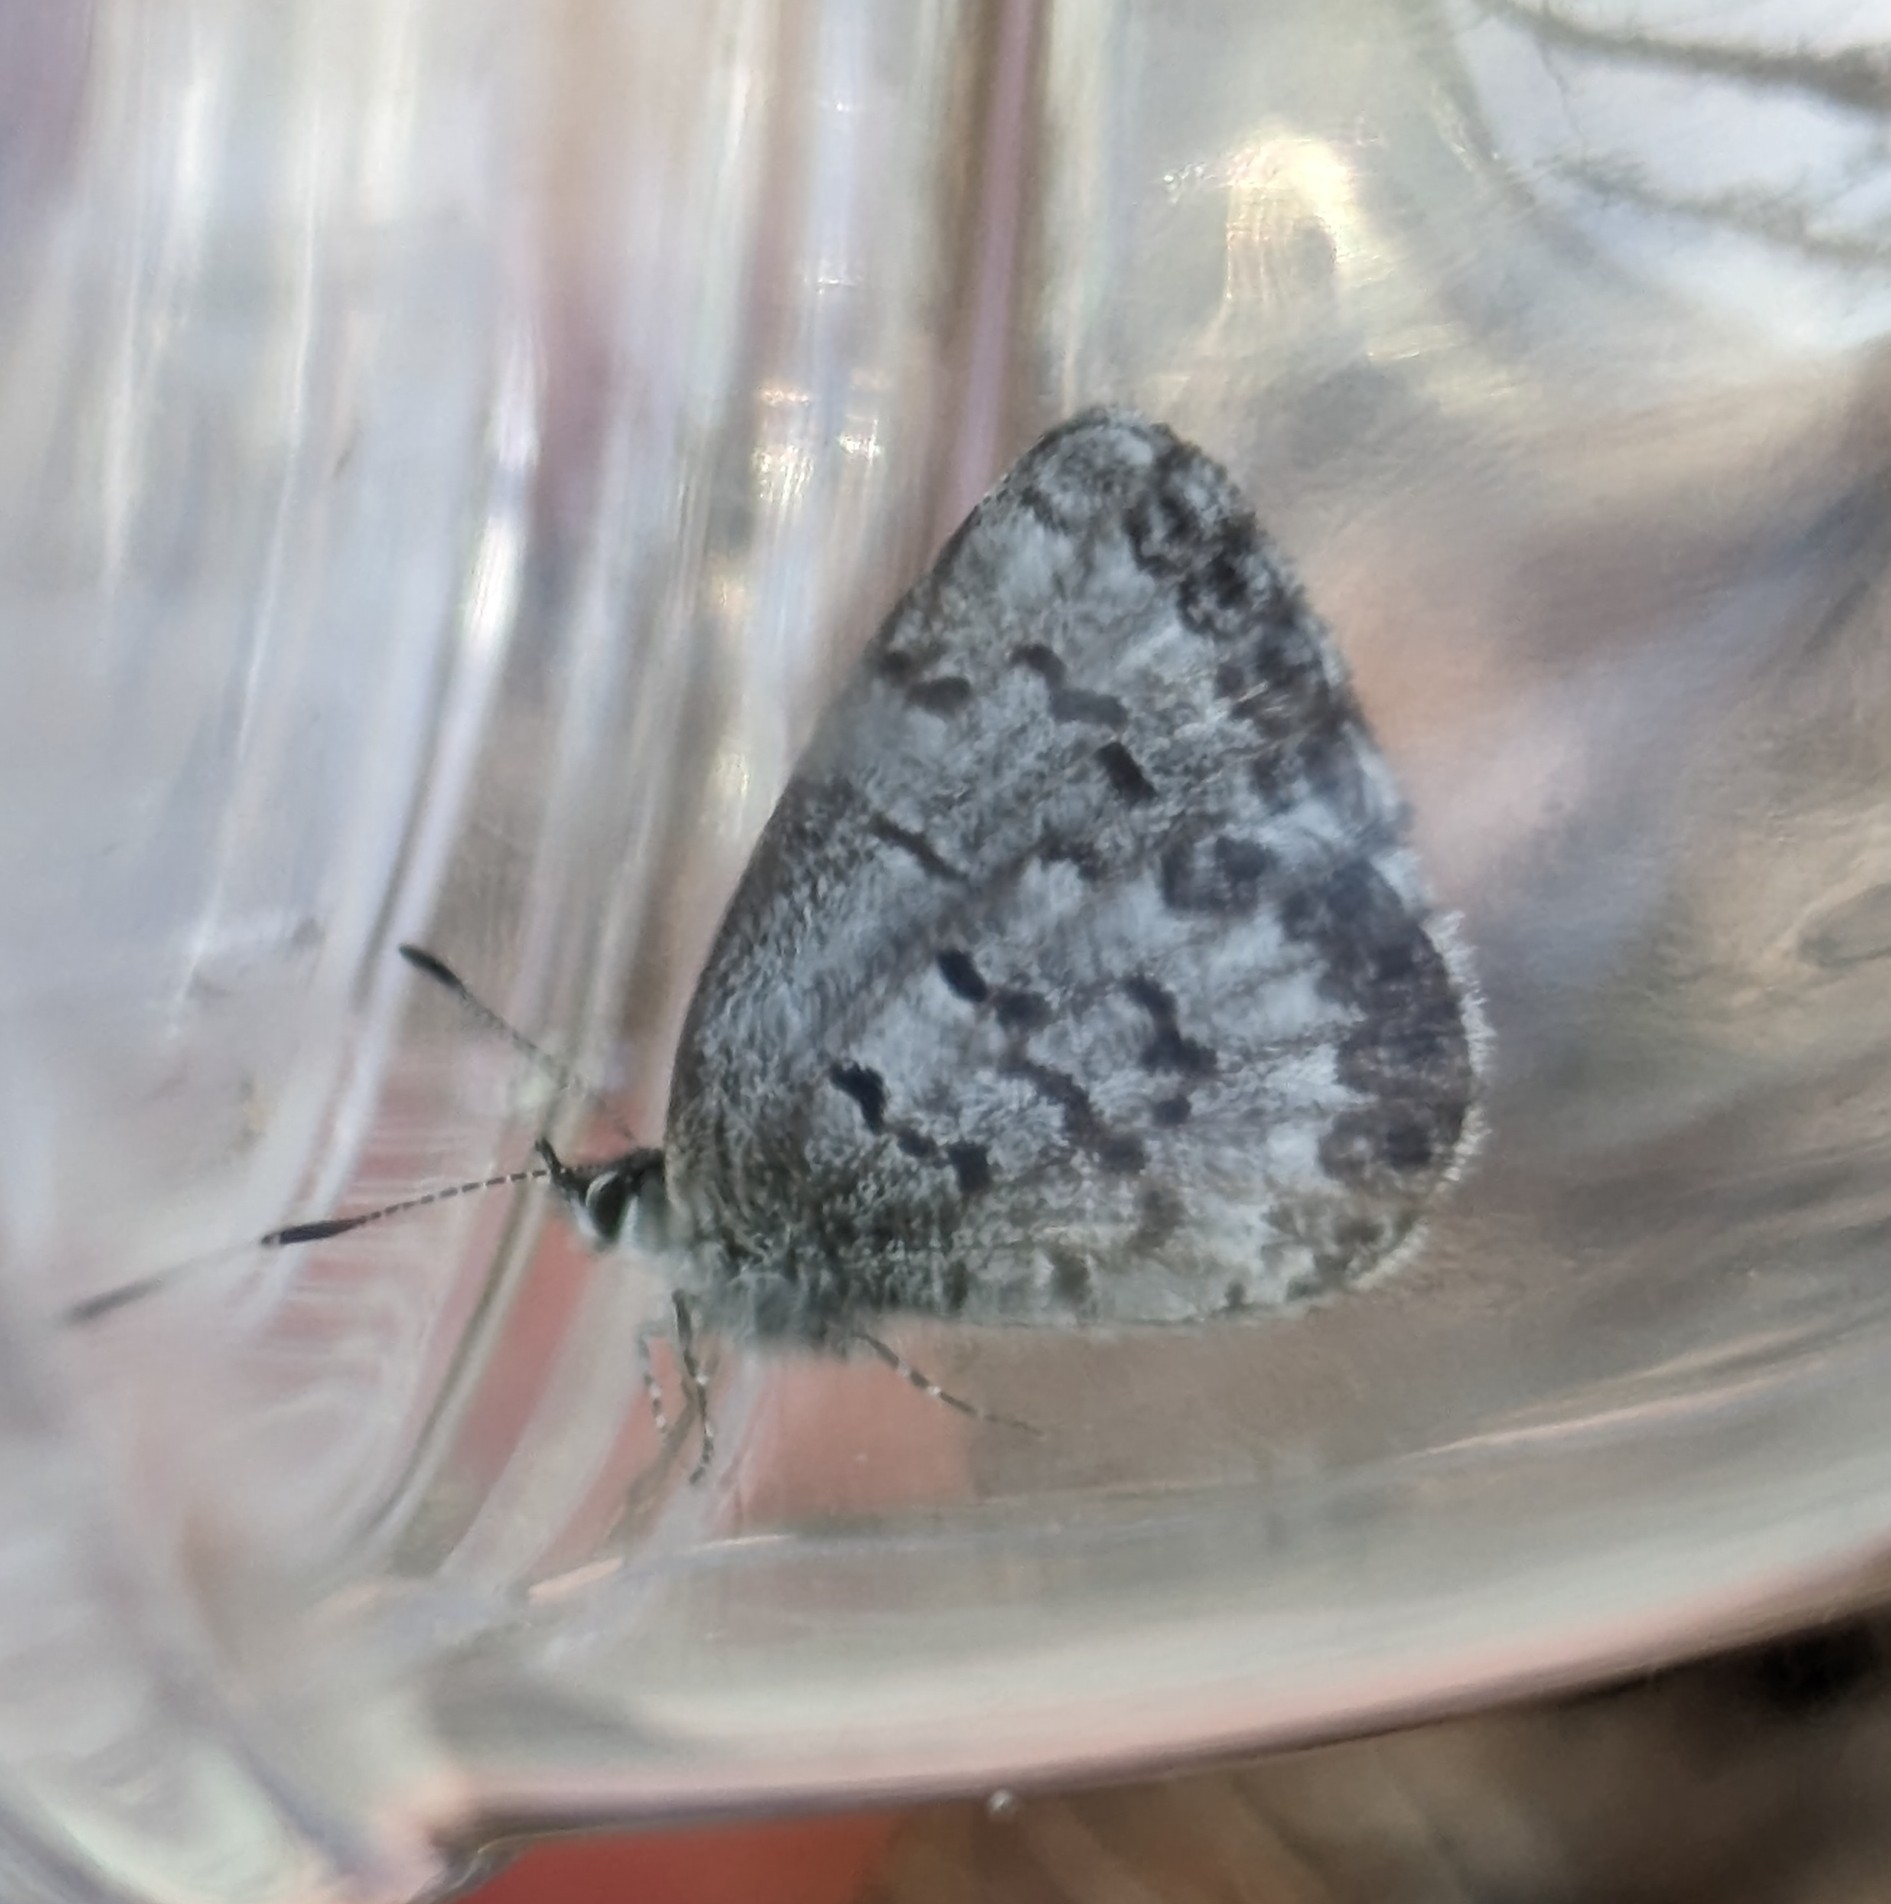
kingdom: Animalia
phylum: Arthropoda
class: Insecta
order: Lepidoptera
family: Lycaenidae
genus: Celastrina
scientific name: Celastrina lucia
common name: Lucia azure
